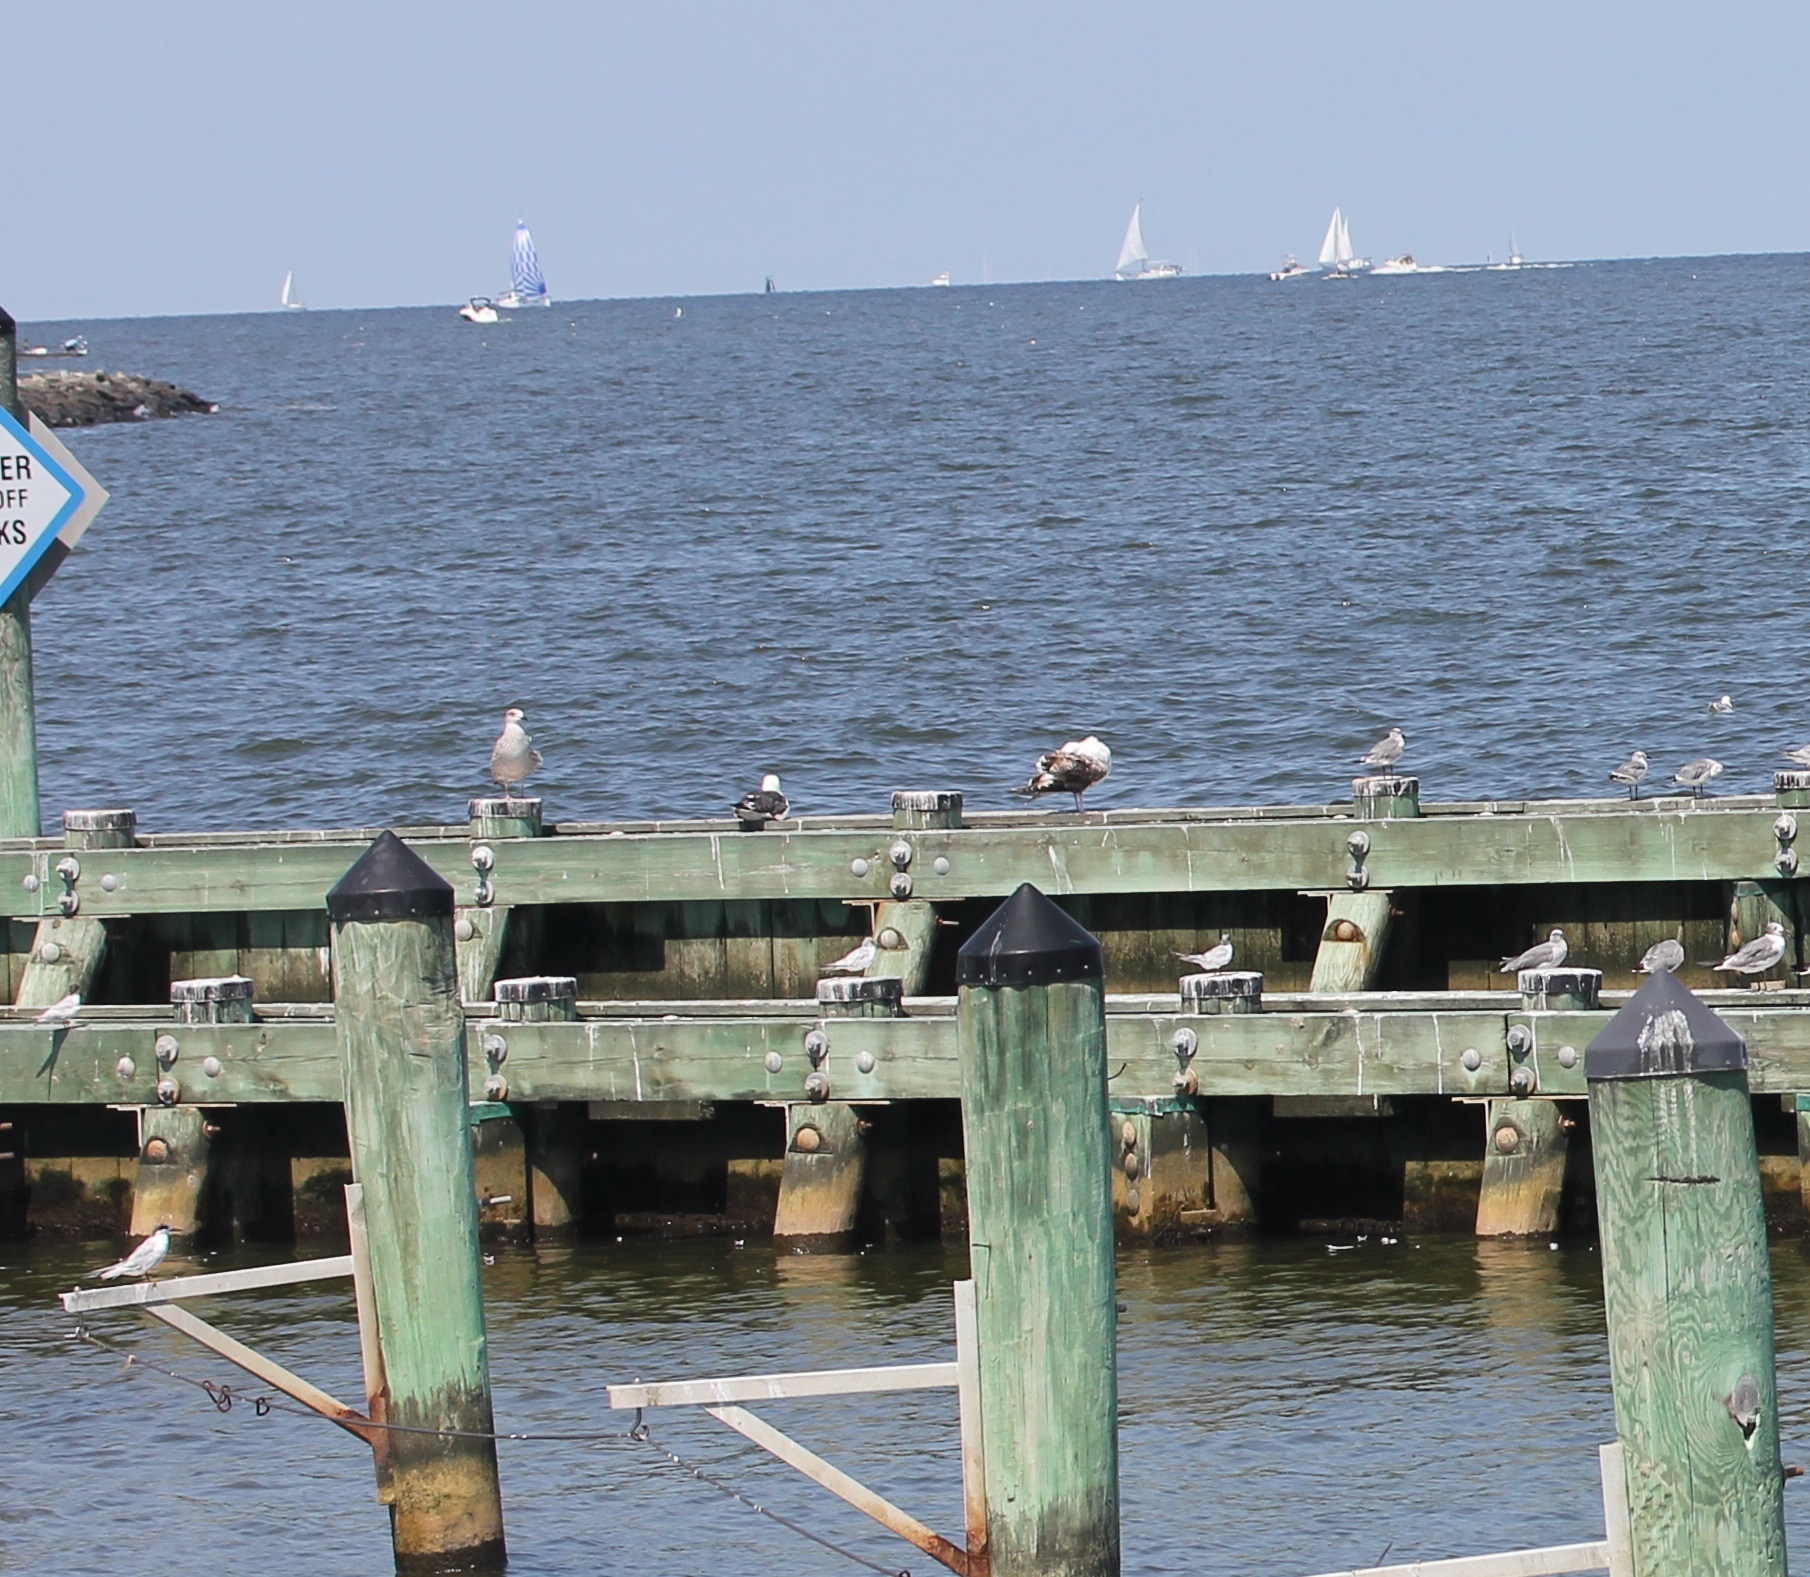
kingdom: Animalia
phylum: Chordata
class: Aves
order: Charadriiformes
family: Laridae
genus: Sterna
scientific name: Sterna forsteri
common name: Forster's tern
